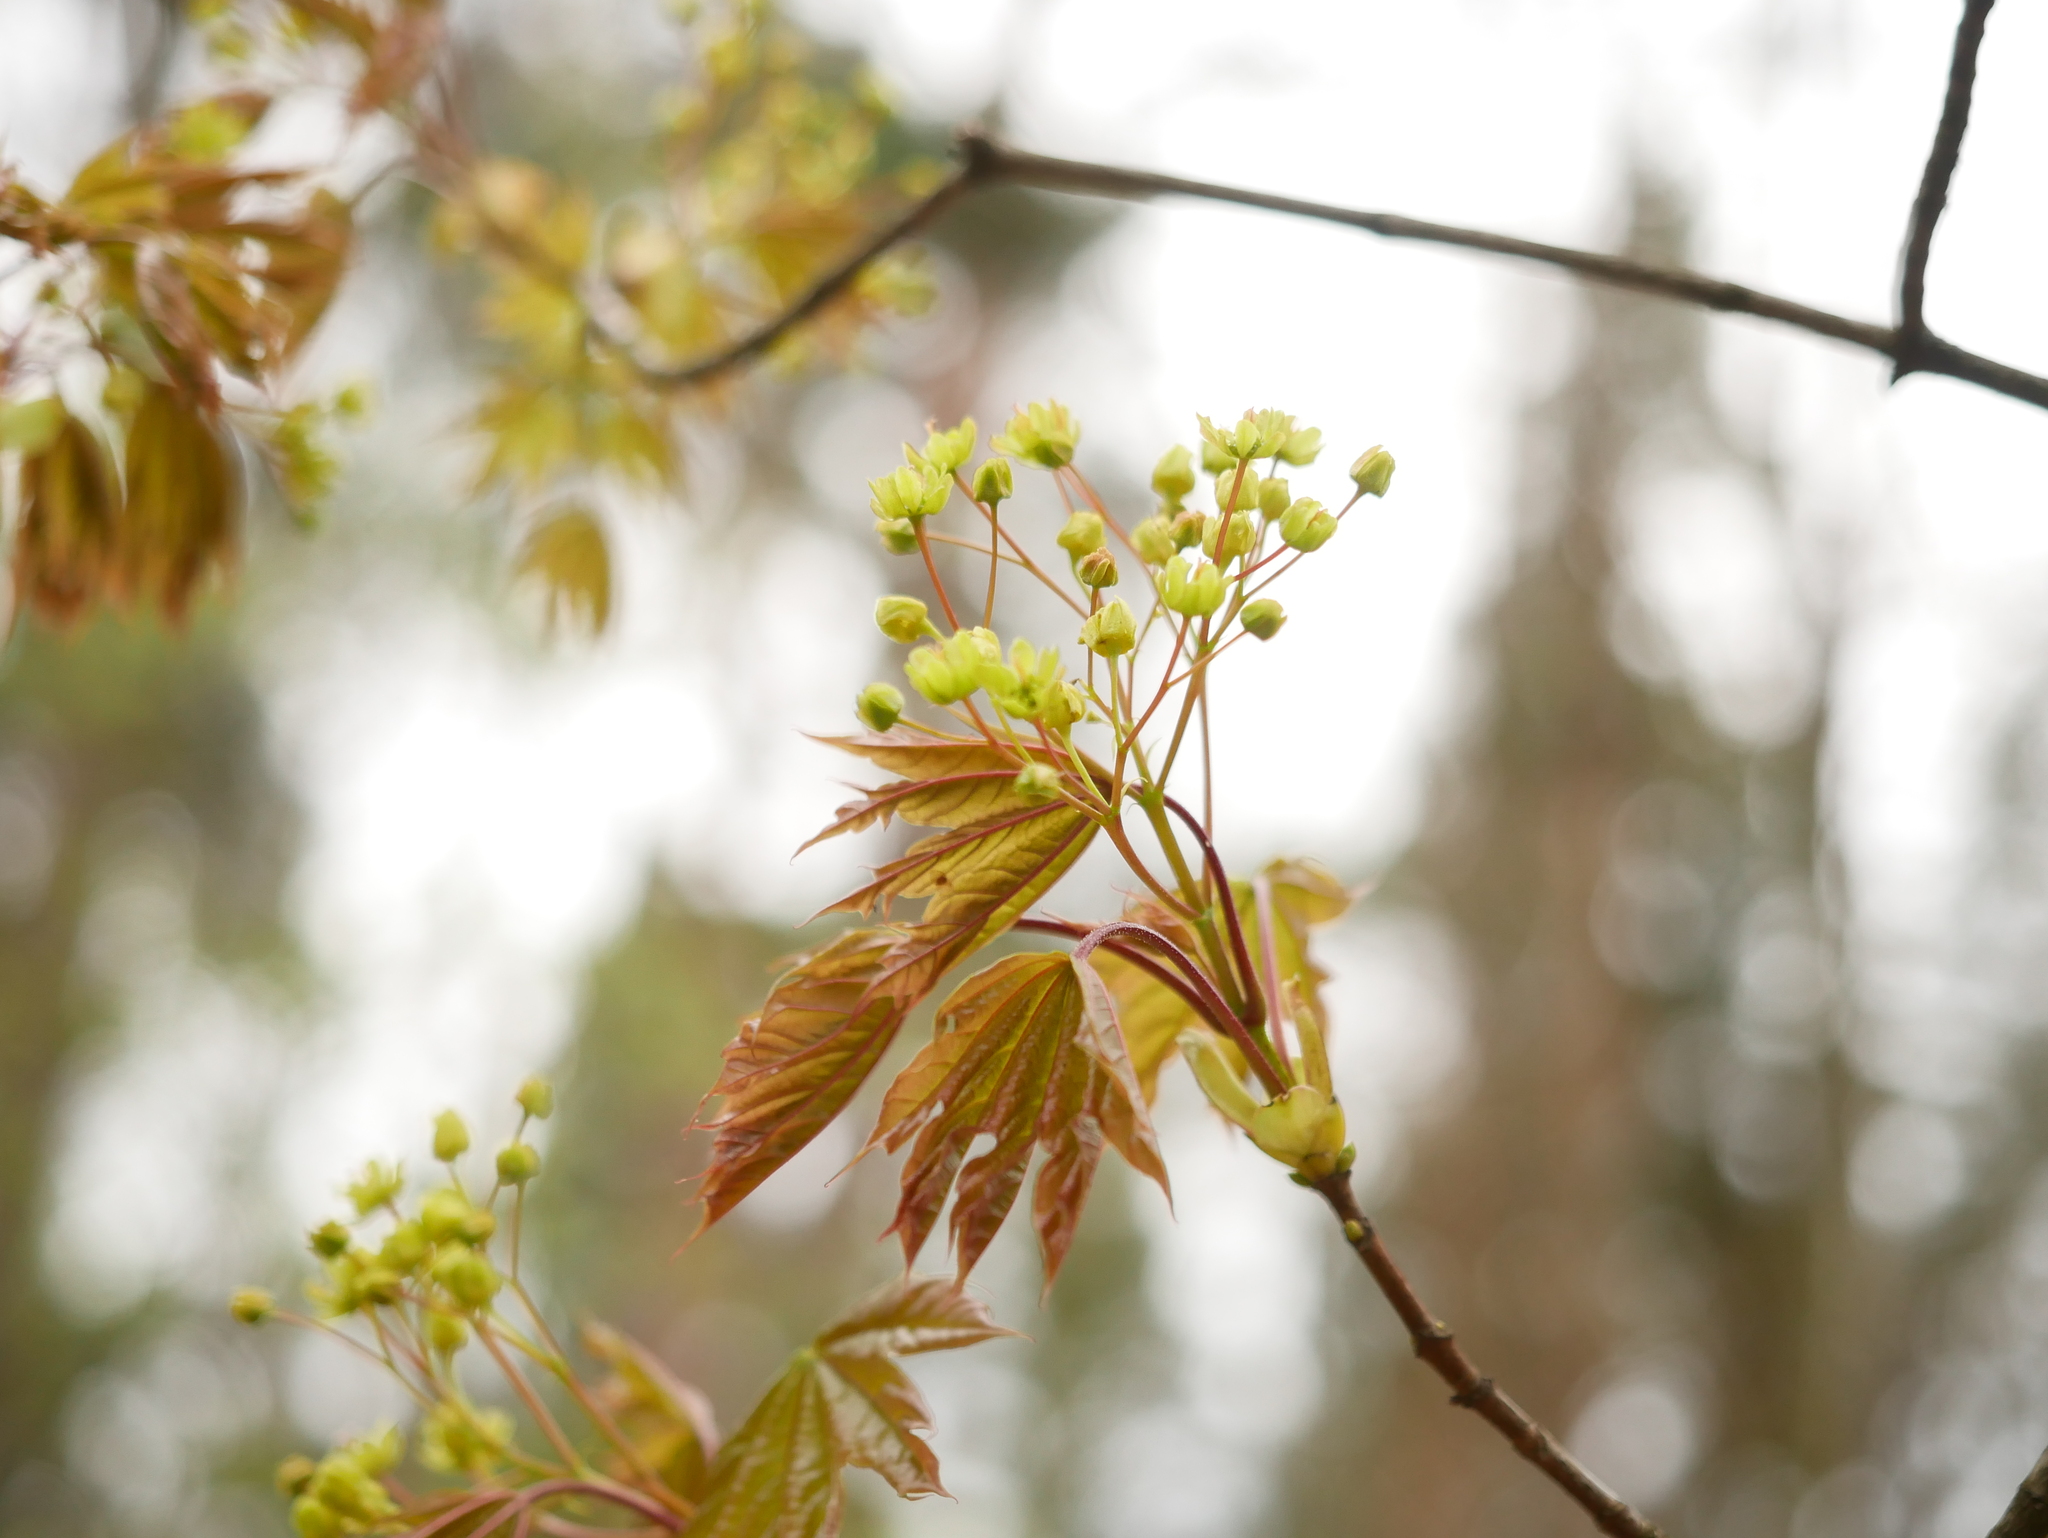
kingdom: Plantae
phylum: Tracheophyta
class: Magnoliopsida
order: Sapindales
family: Sapindaceae
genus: Acer
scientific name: Acer platanoides
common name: Norway maple
